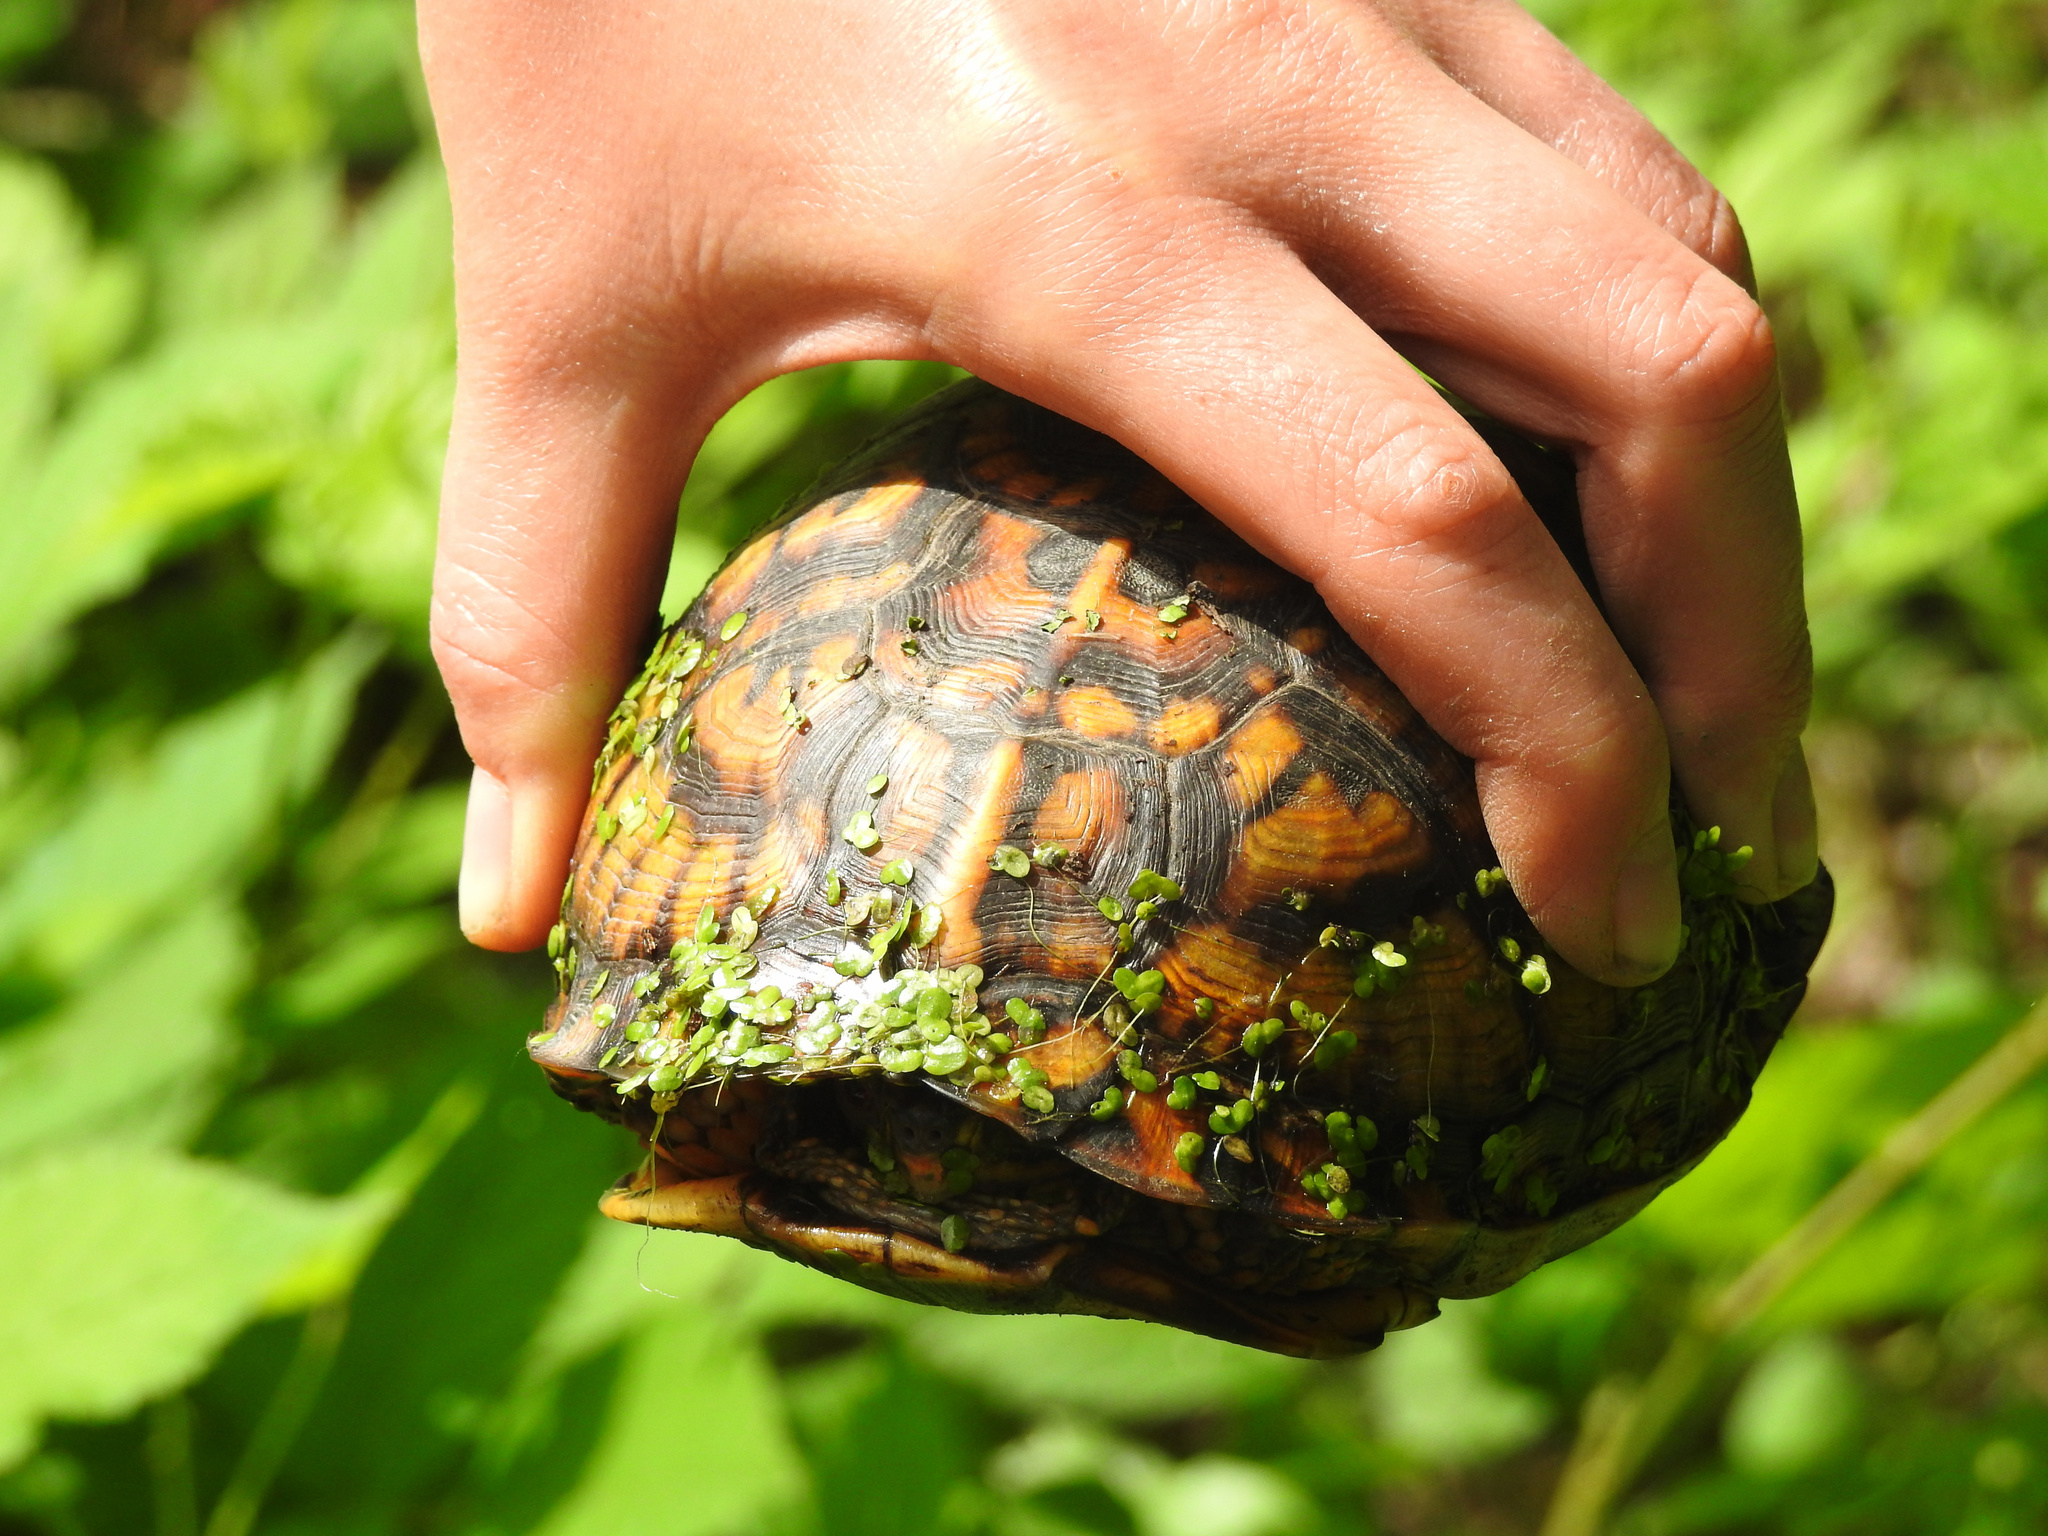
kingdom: Animalia
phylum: Chordata
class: Testudines
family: Emydidae
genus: Terrapene
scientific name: Terrapene carolina
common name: Common box turtle
